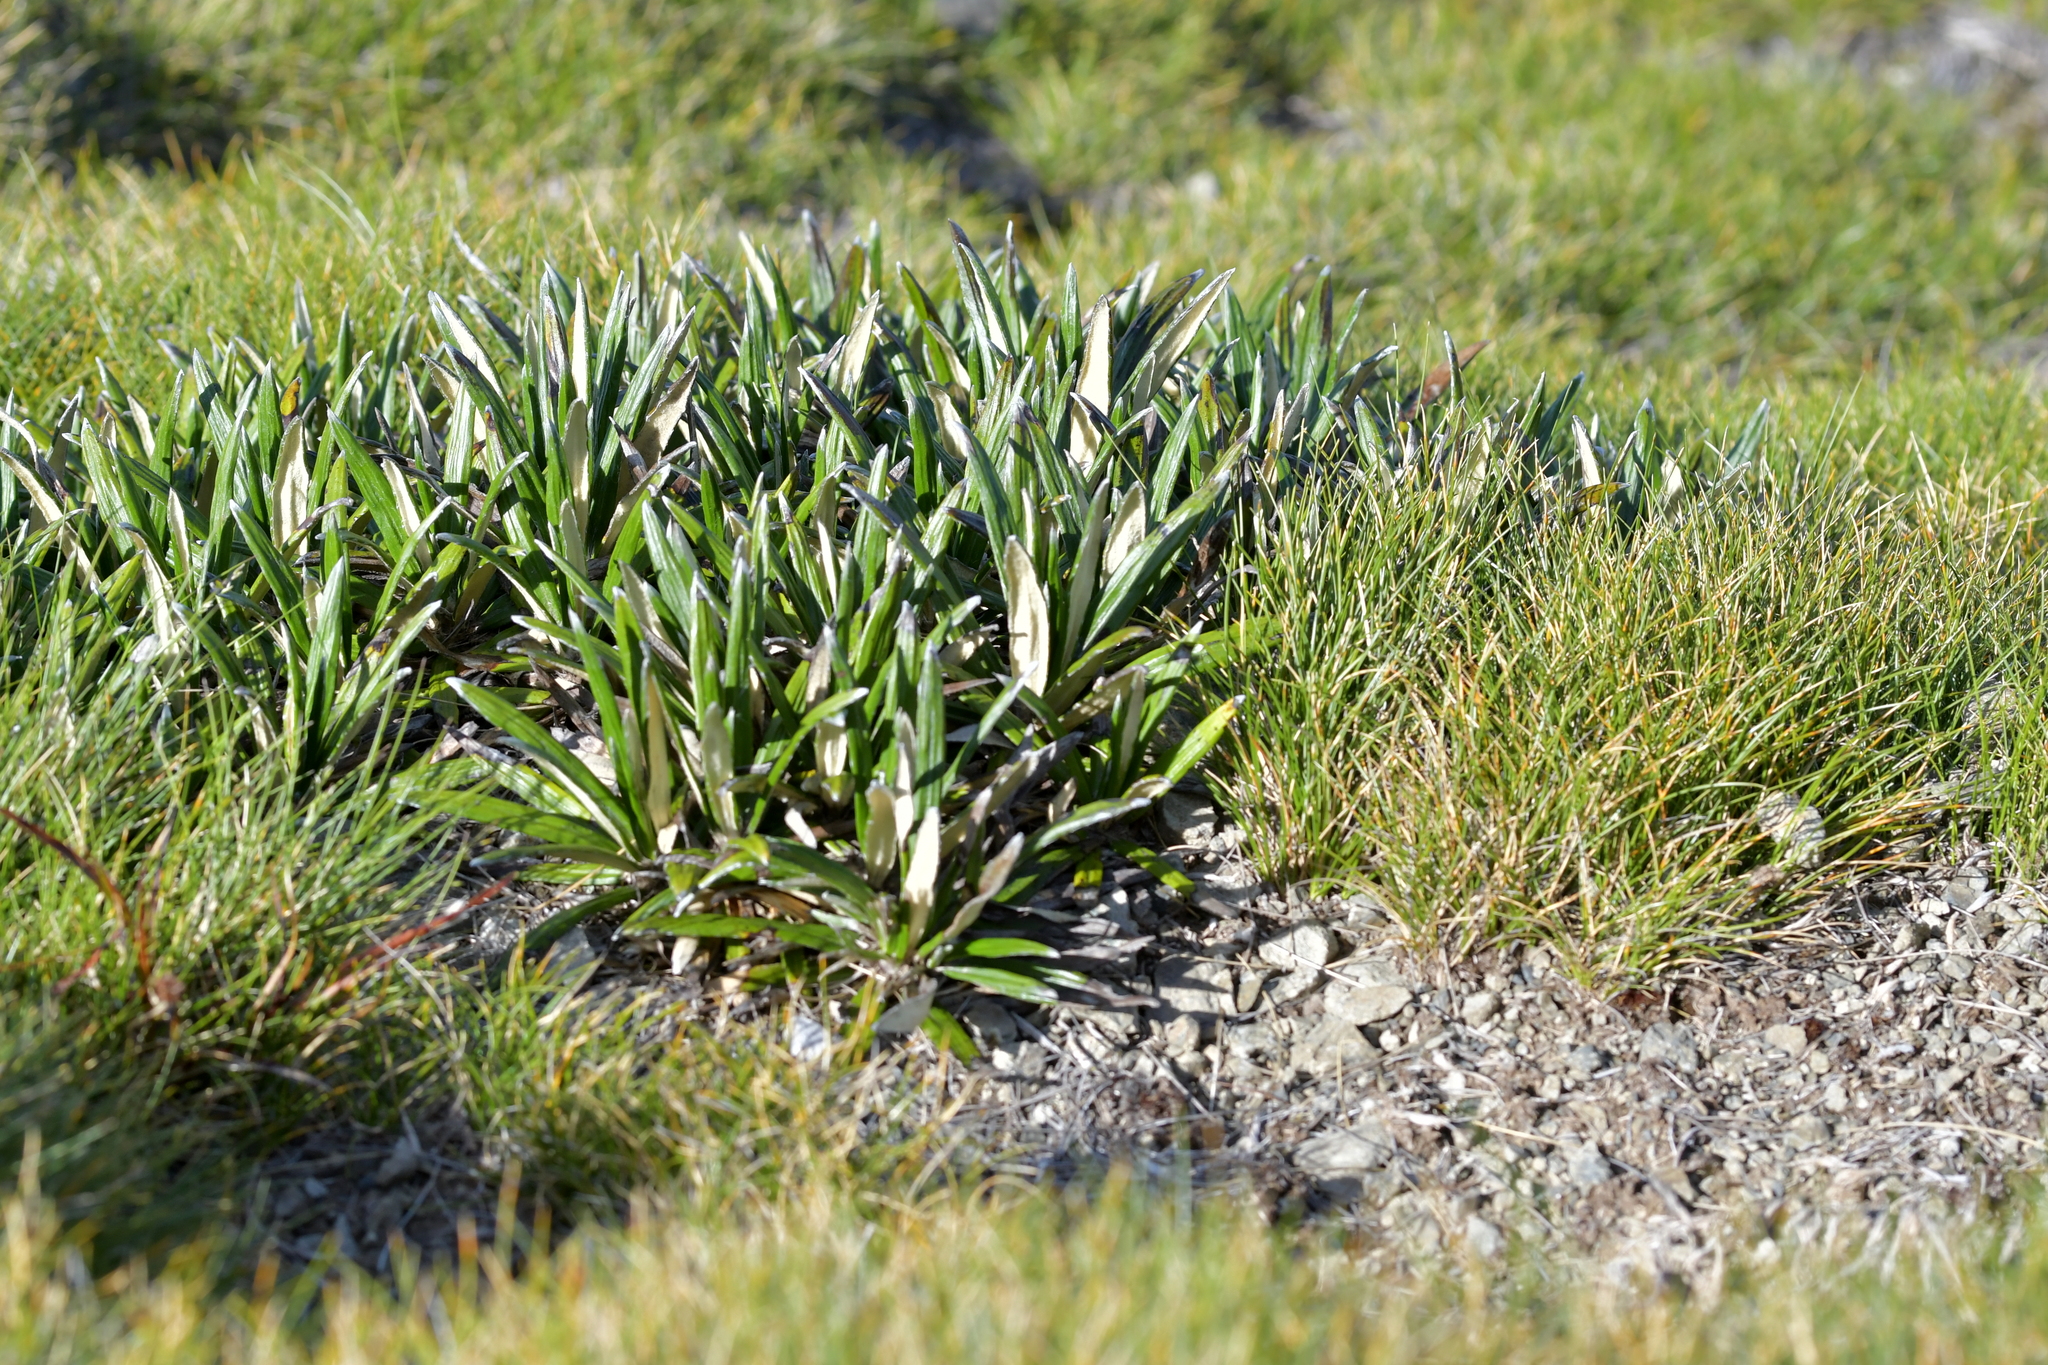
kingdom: Plantae
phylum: Tracheophyta
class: Magnoliopsida
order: Asterales
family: Asteraceae
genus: Celmisia
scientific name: Celmisia spectabilis
